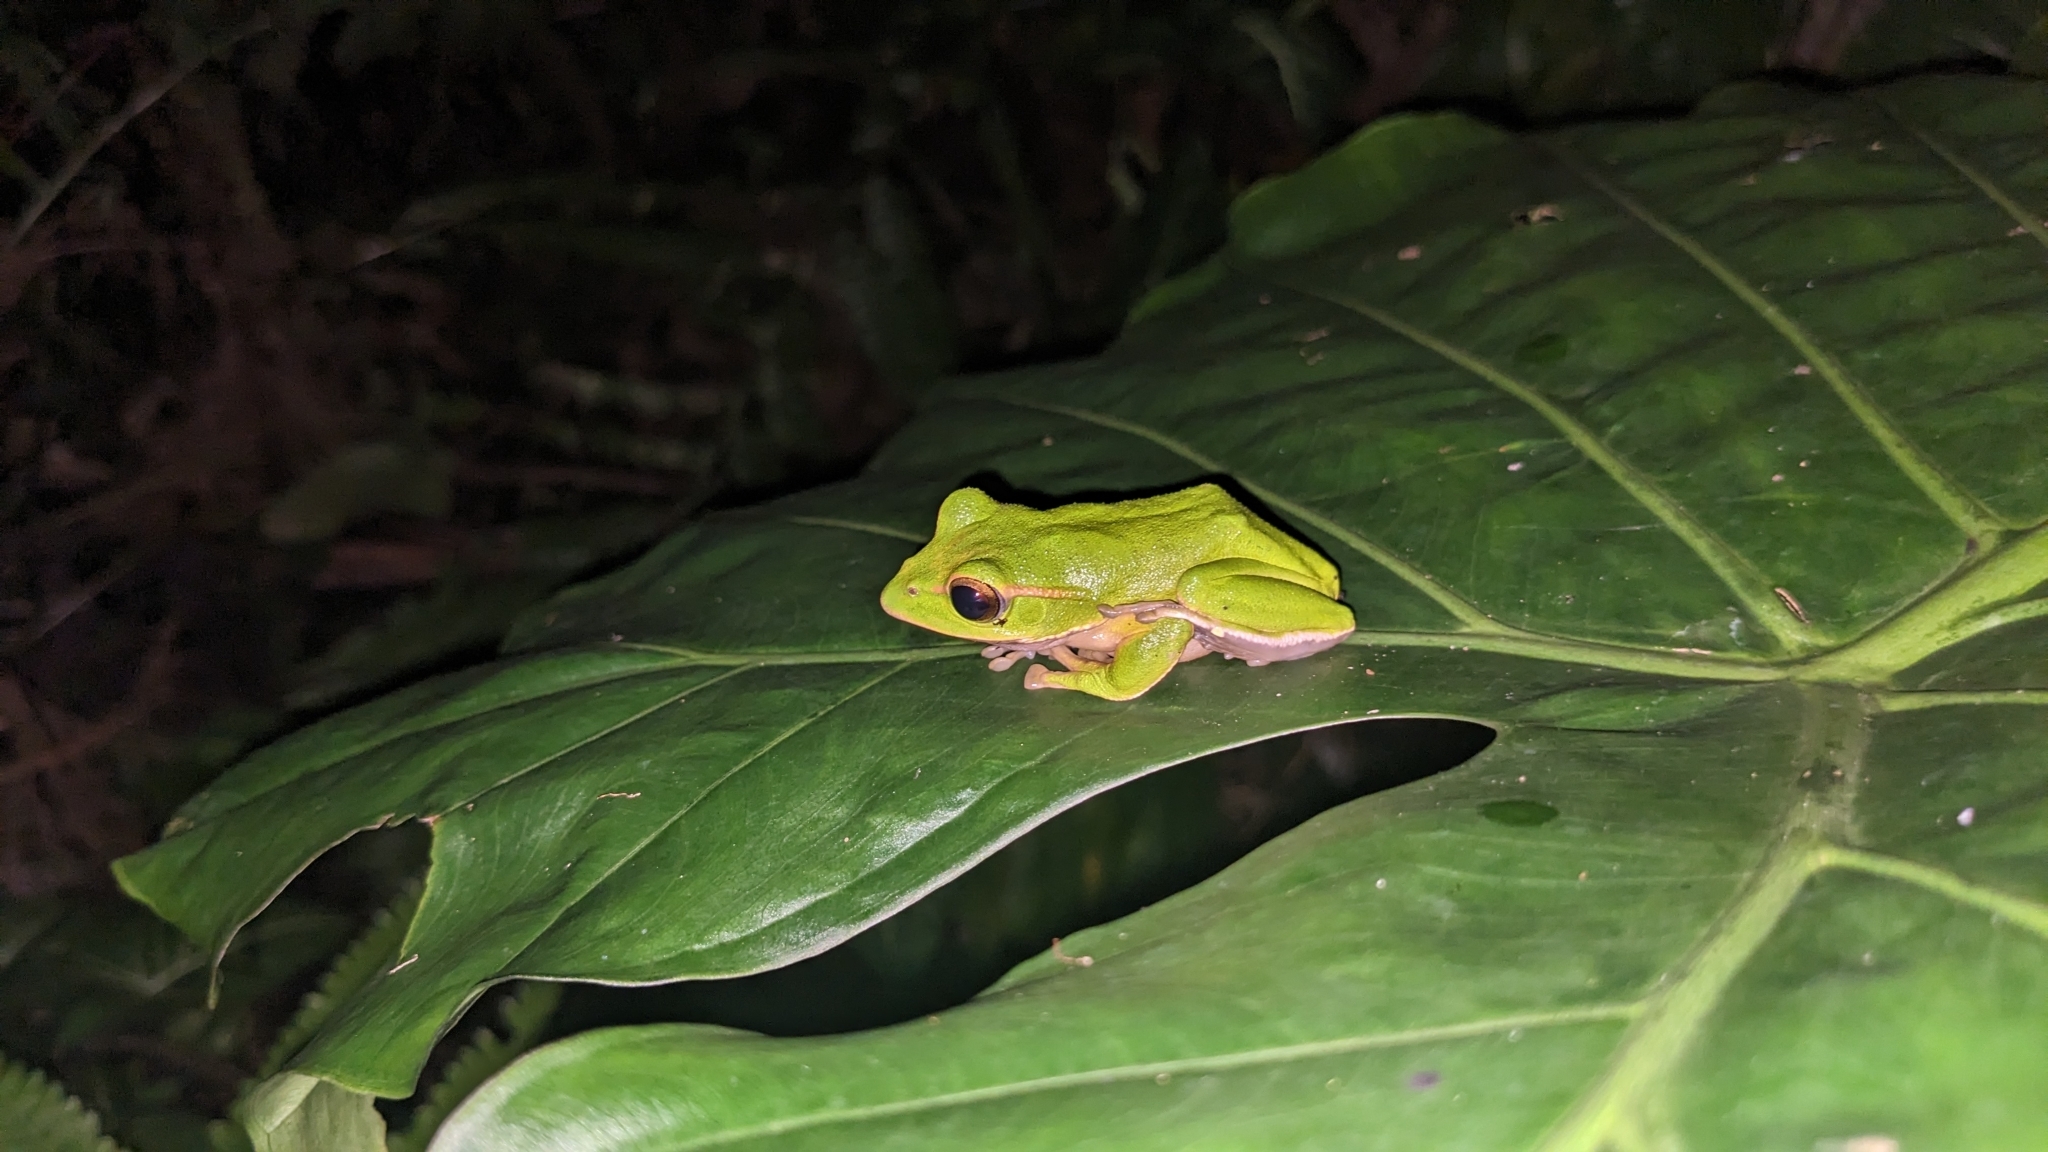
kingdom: Animalia
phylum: Chordata
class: Amphibia
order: Anura
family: Rhacophoridae
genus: Zhangixalus
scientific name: Zhangixalus prasinatus
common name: Tributary flying frog
